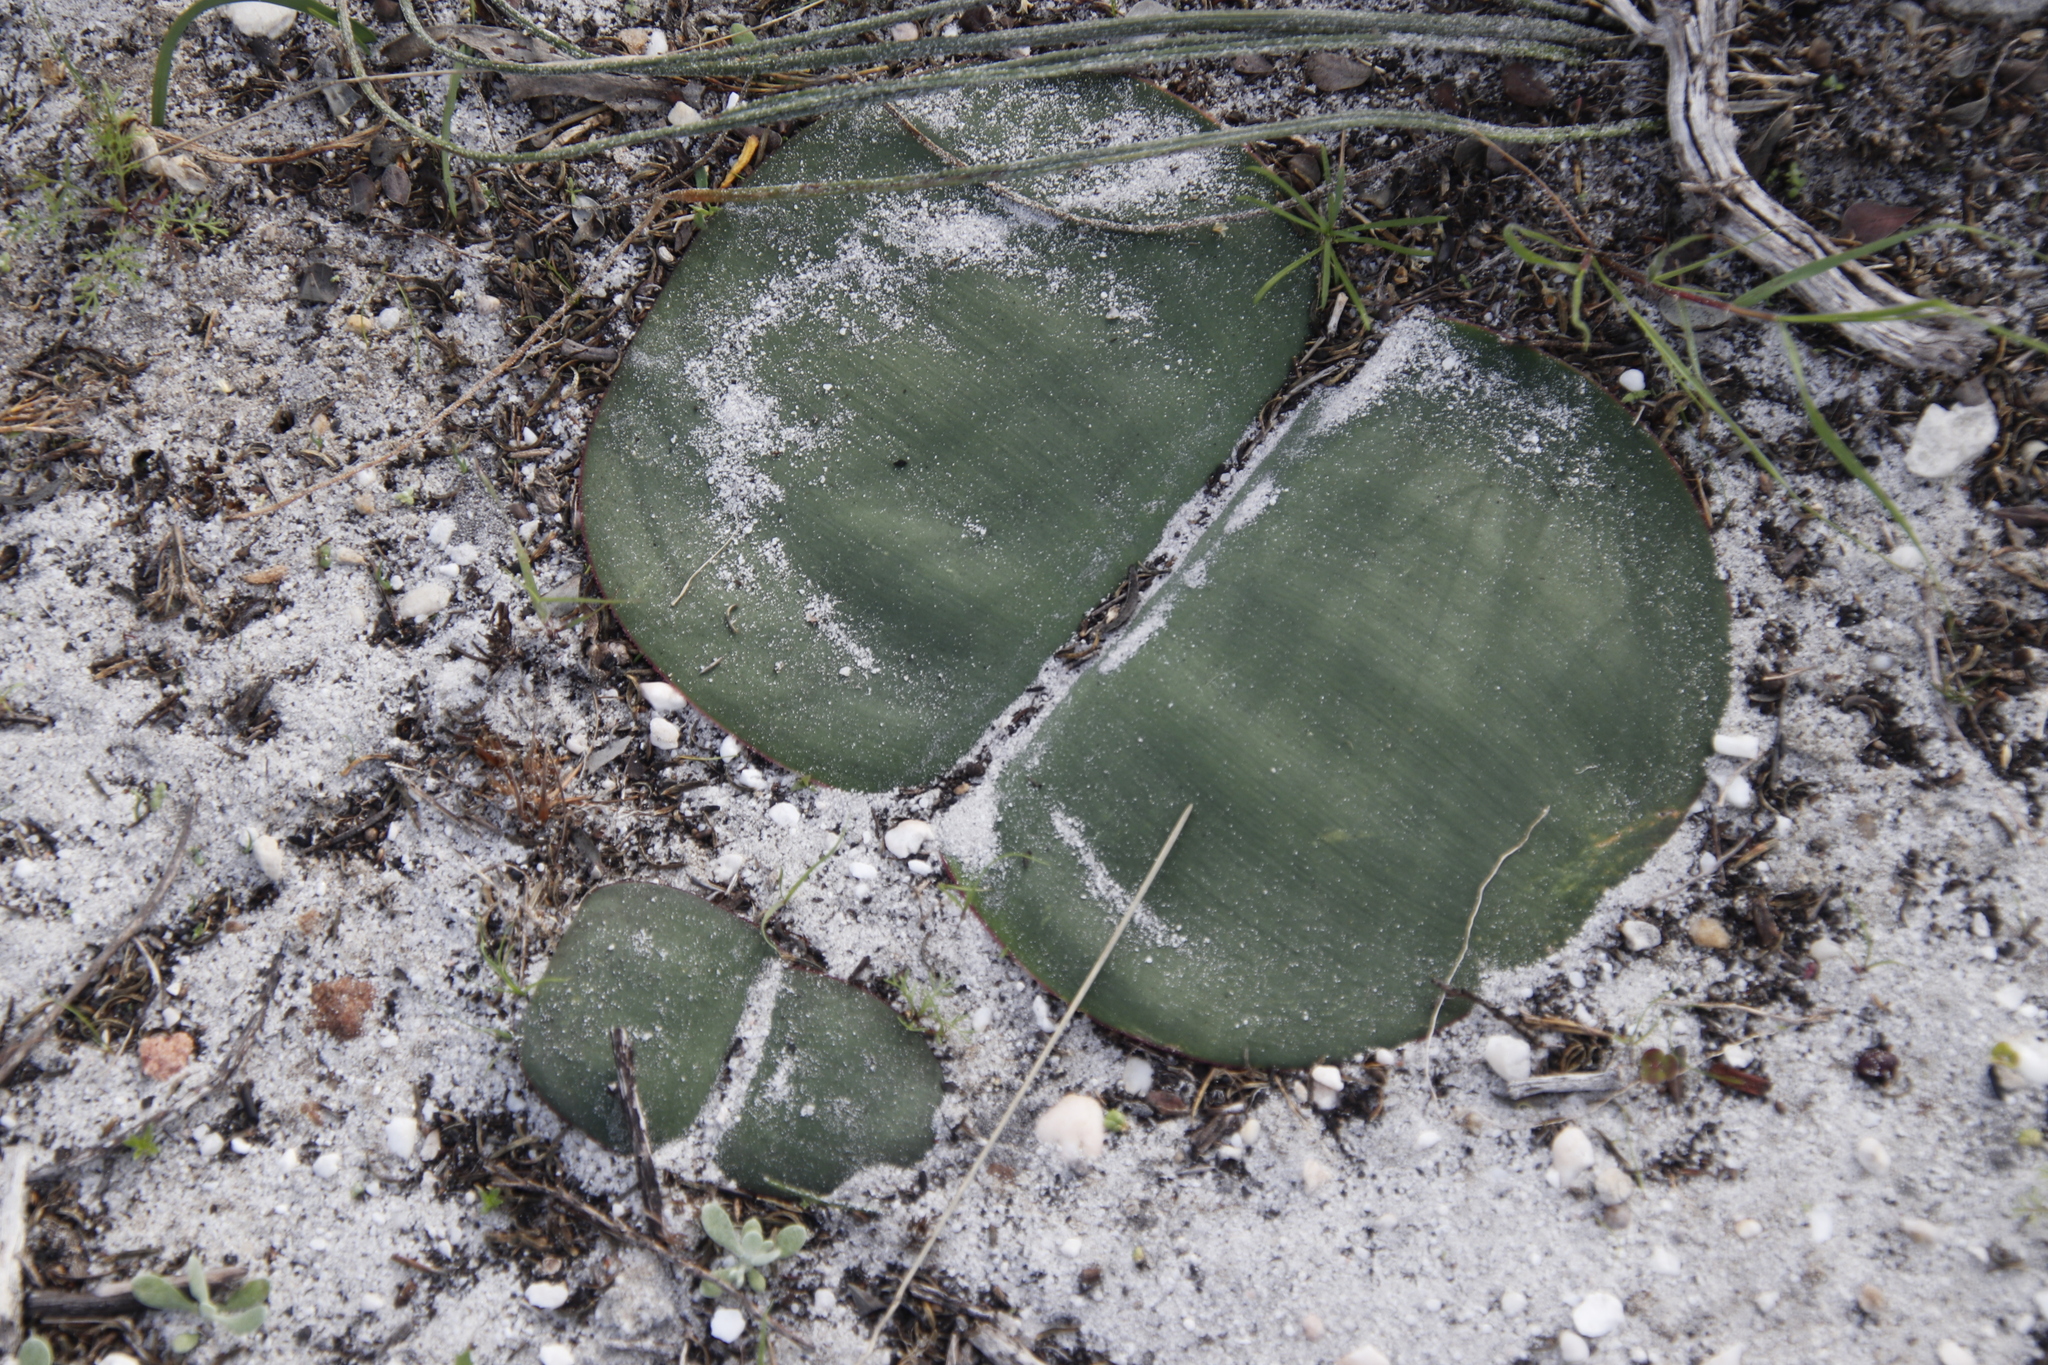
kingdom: Plantae
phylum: Tracheophyta
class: Liliopsida
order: Asparagales
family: Amaryllidaceae
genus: Haemanthus
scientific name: Haemanthus sanguineus
